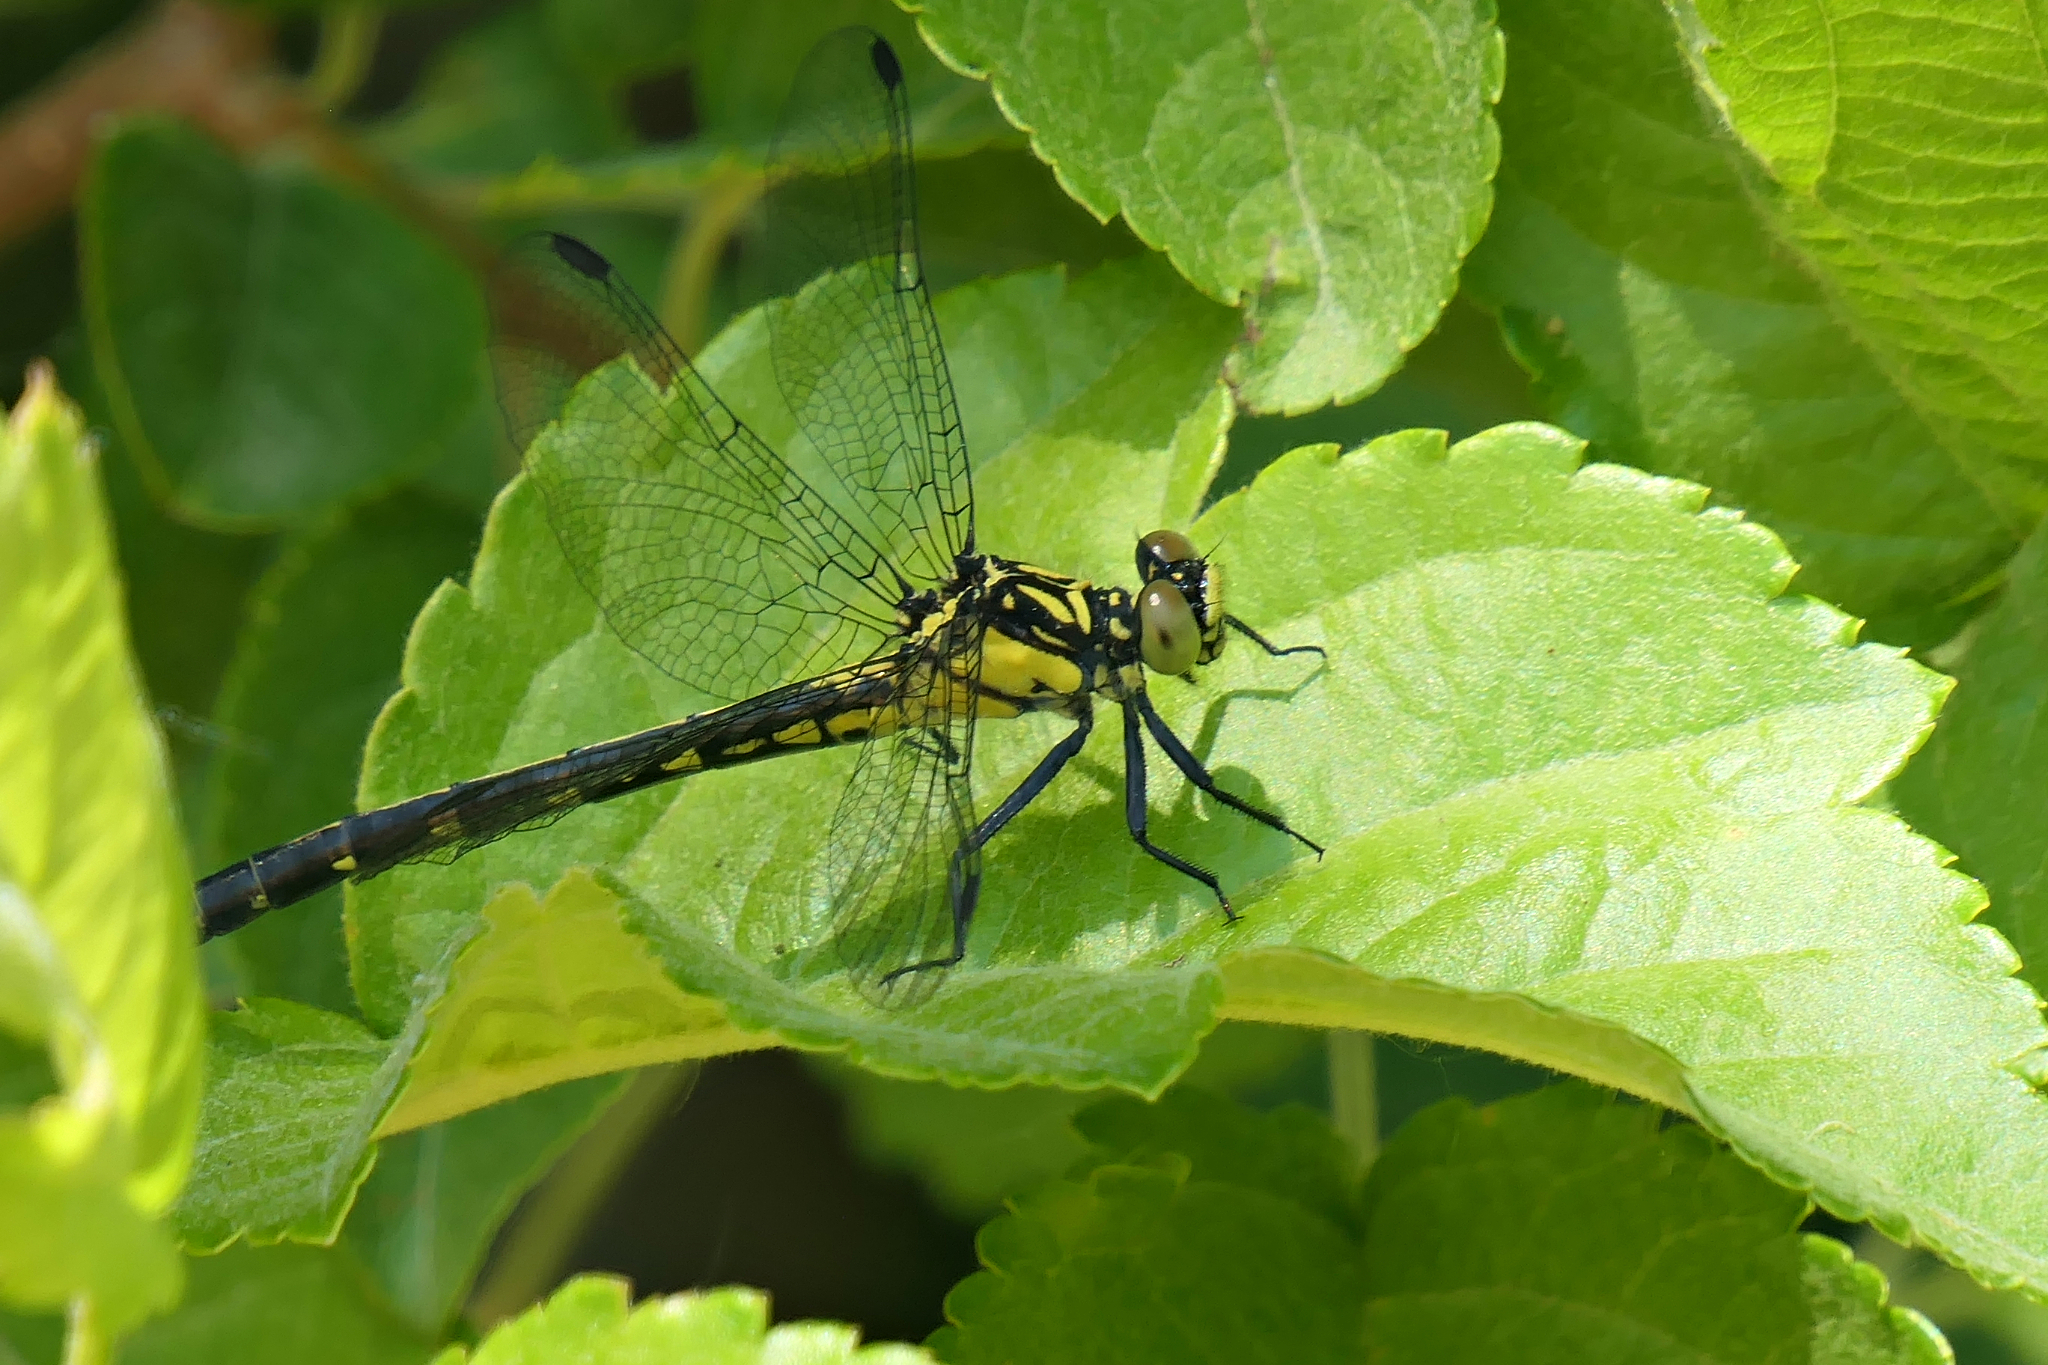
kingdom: Animalia
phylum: Arthropoda
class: Insecta
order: Odonata
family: Gomphidae
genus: Lanthus
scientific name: Lanthus vernalis
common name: Southern pygmy clubtail
